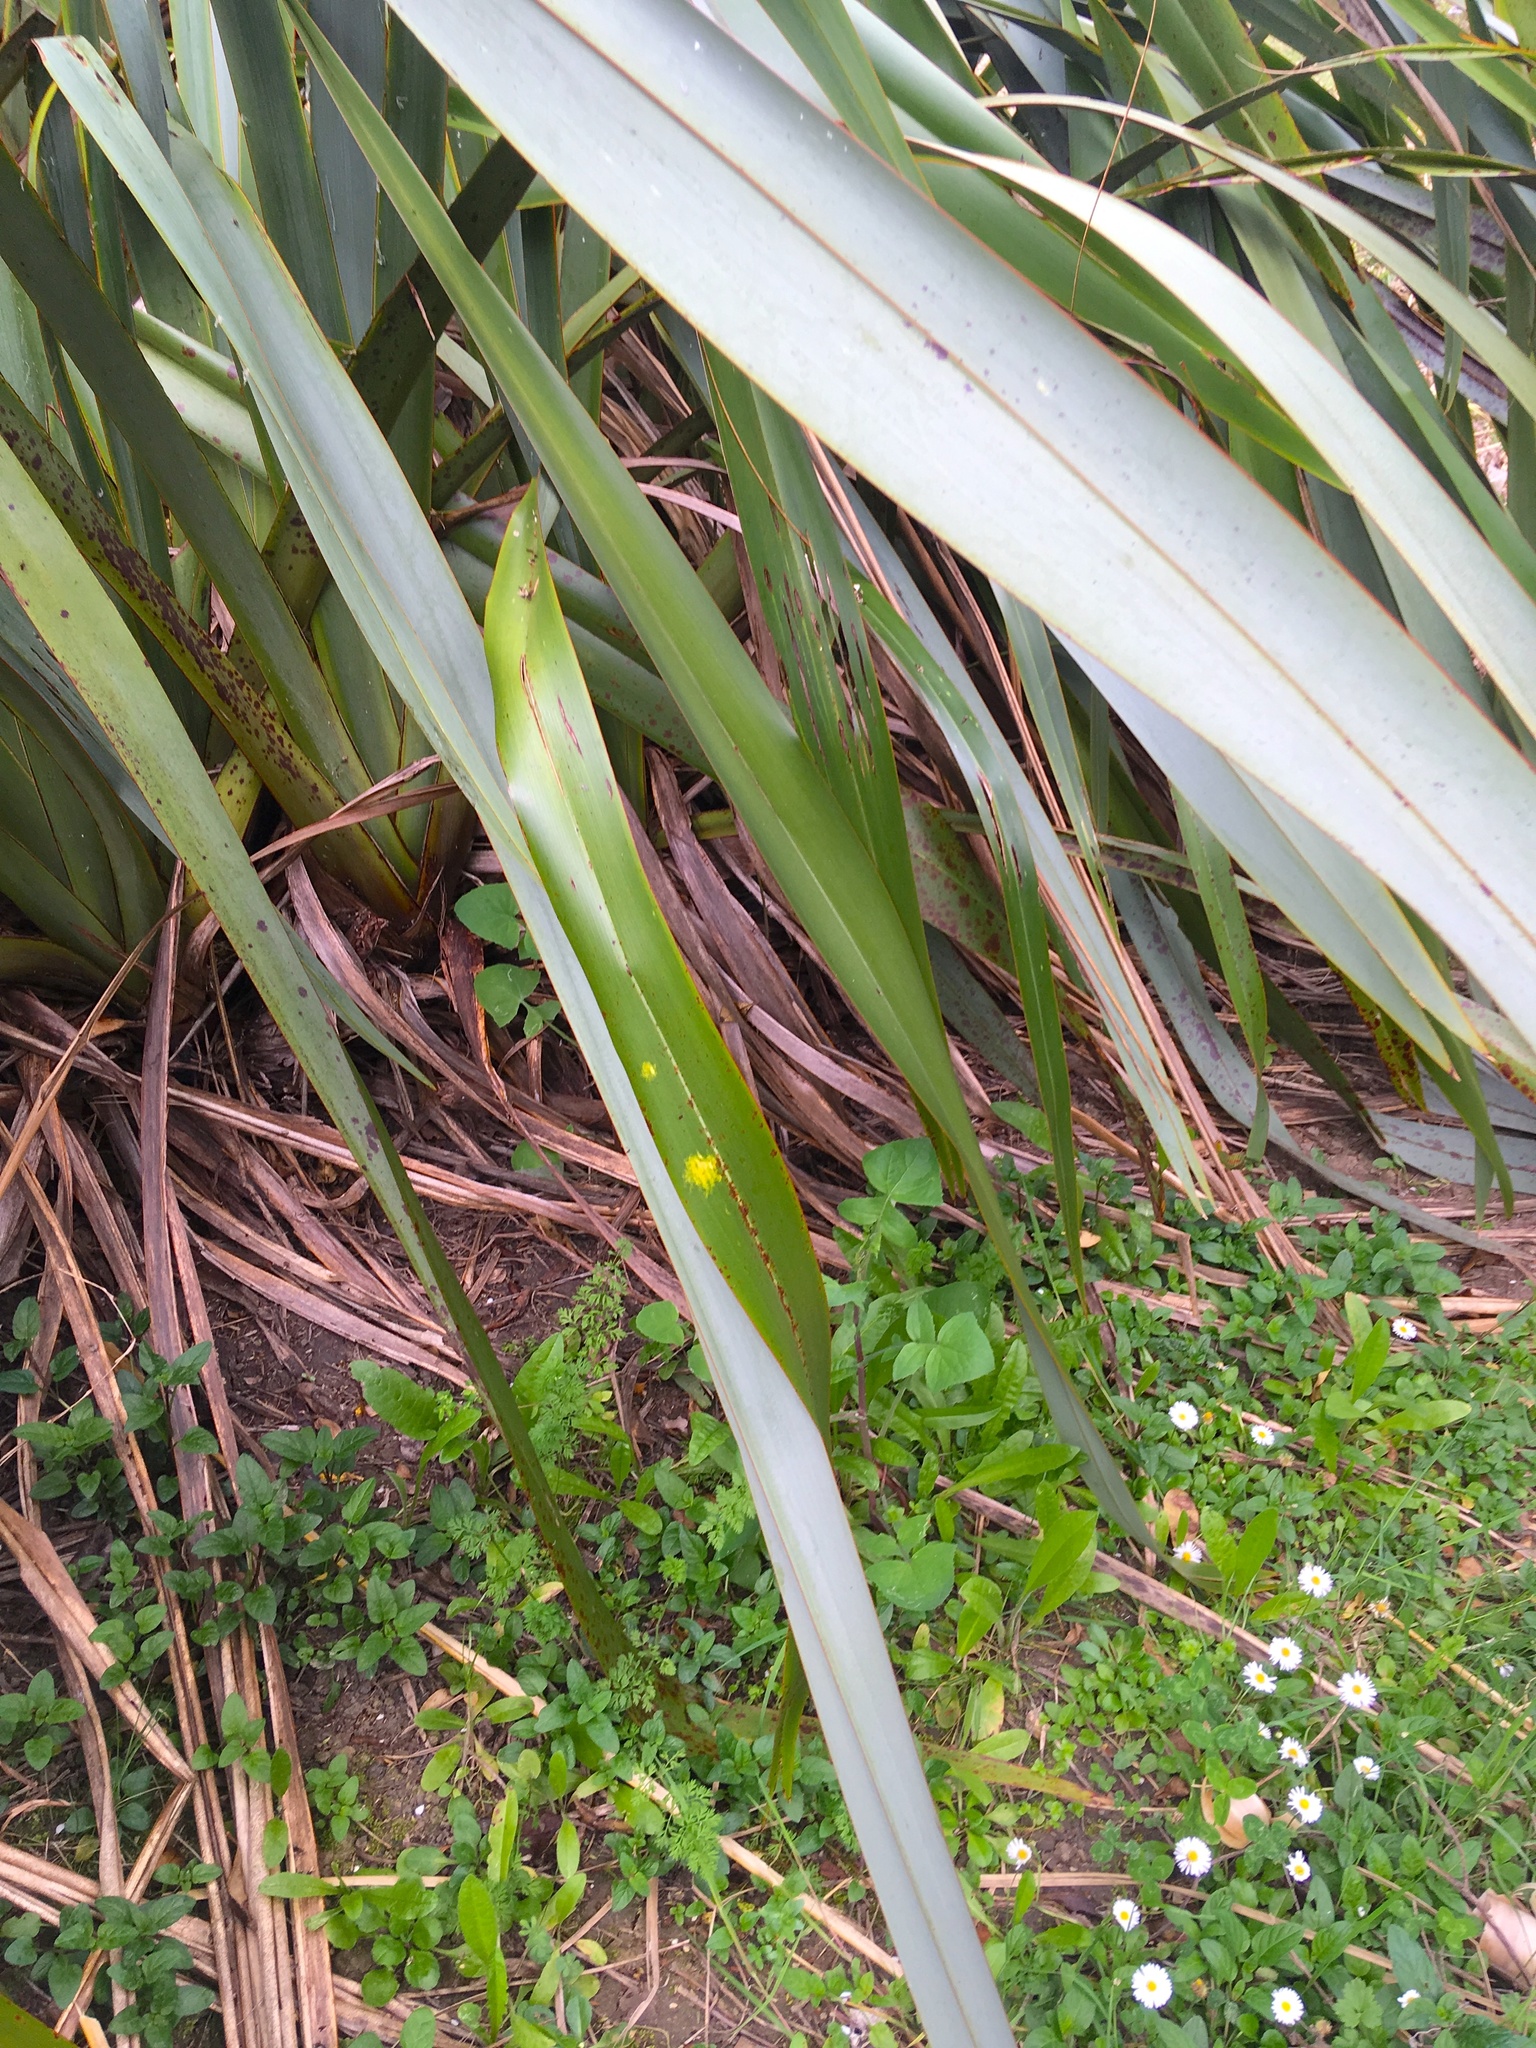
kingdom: Plantae
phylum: Tracheophyta
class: Magnoliopsida
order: Asterales
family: Asteraceae
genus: Sonchus
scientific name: Sonchus oleraceus
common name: Common sowthistle
